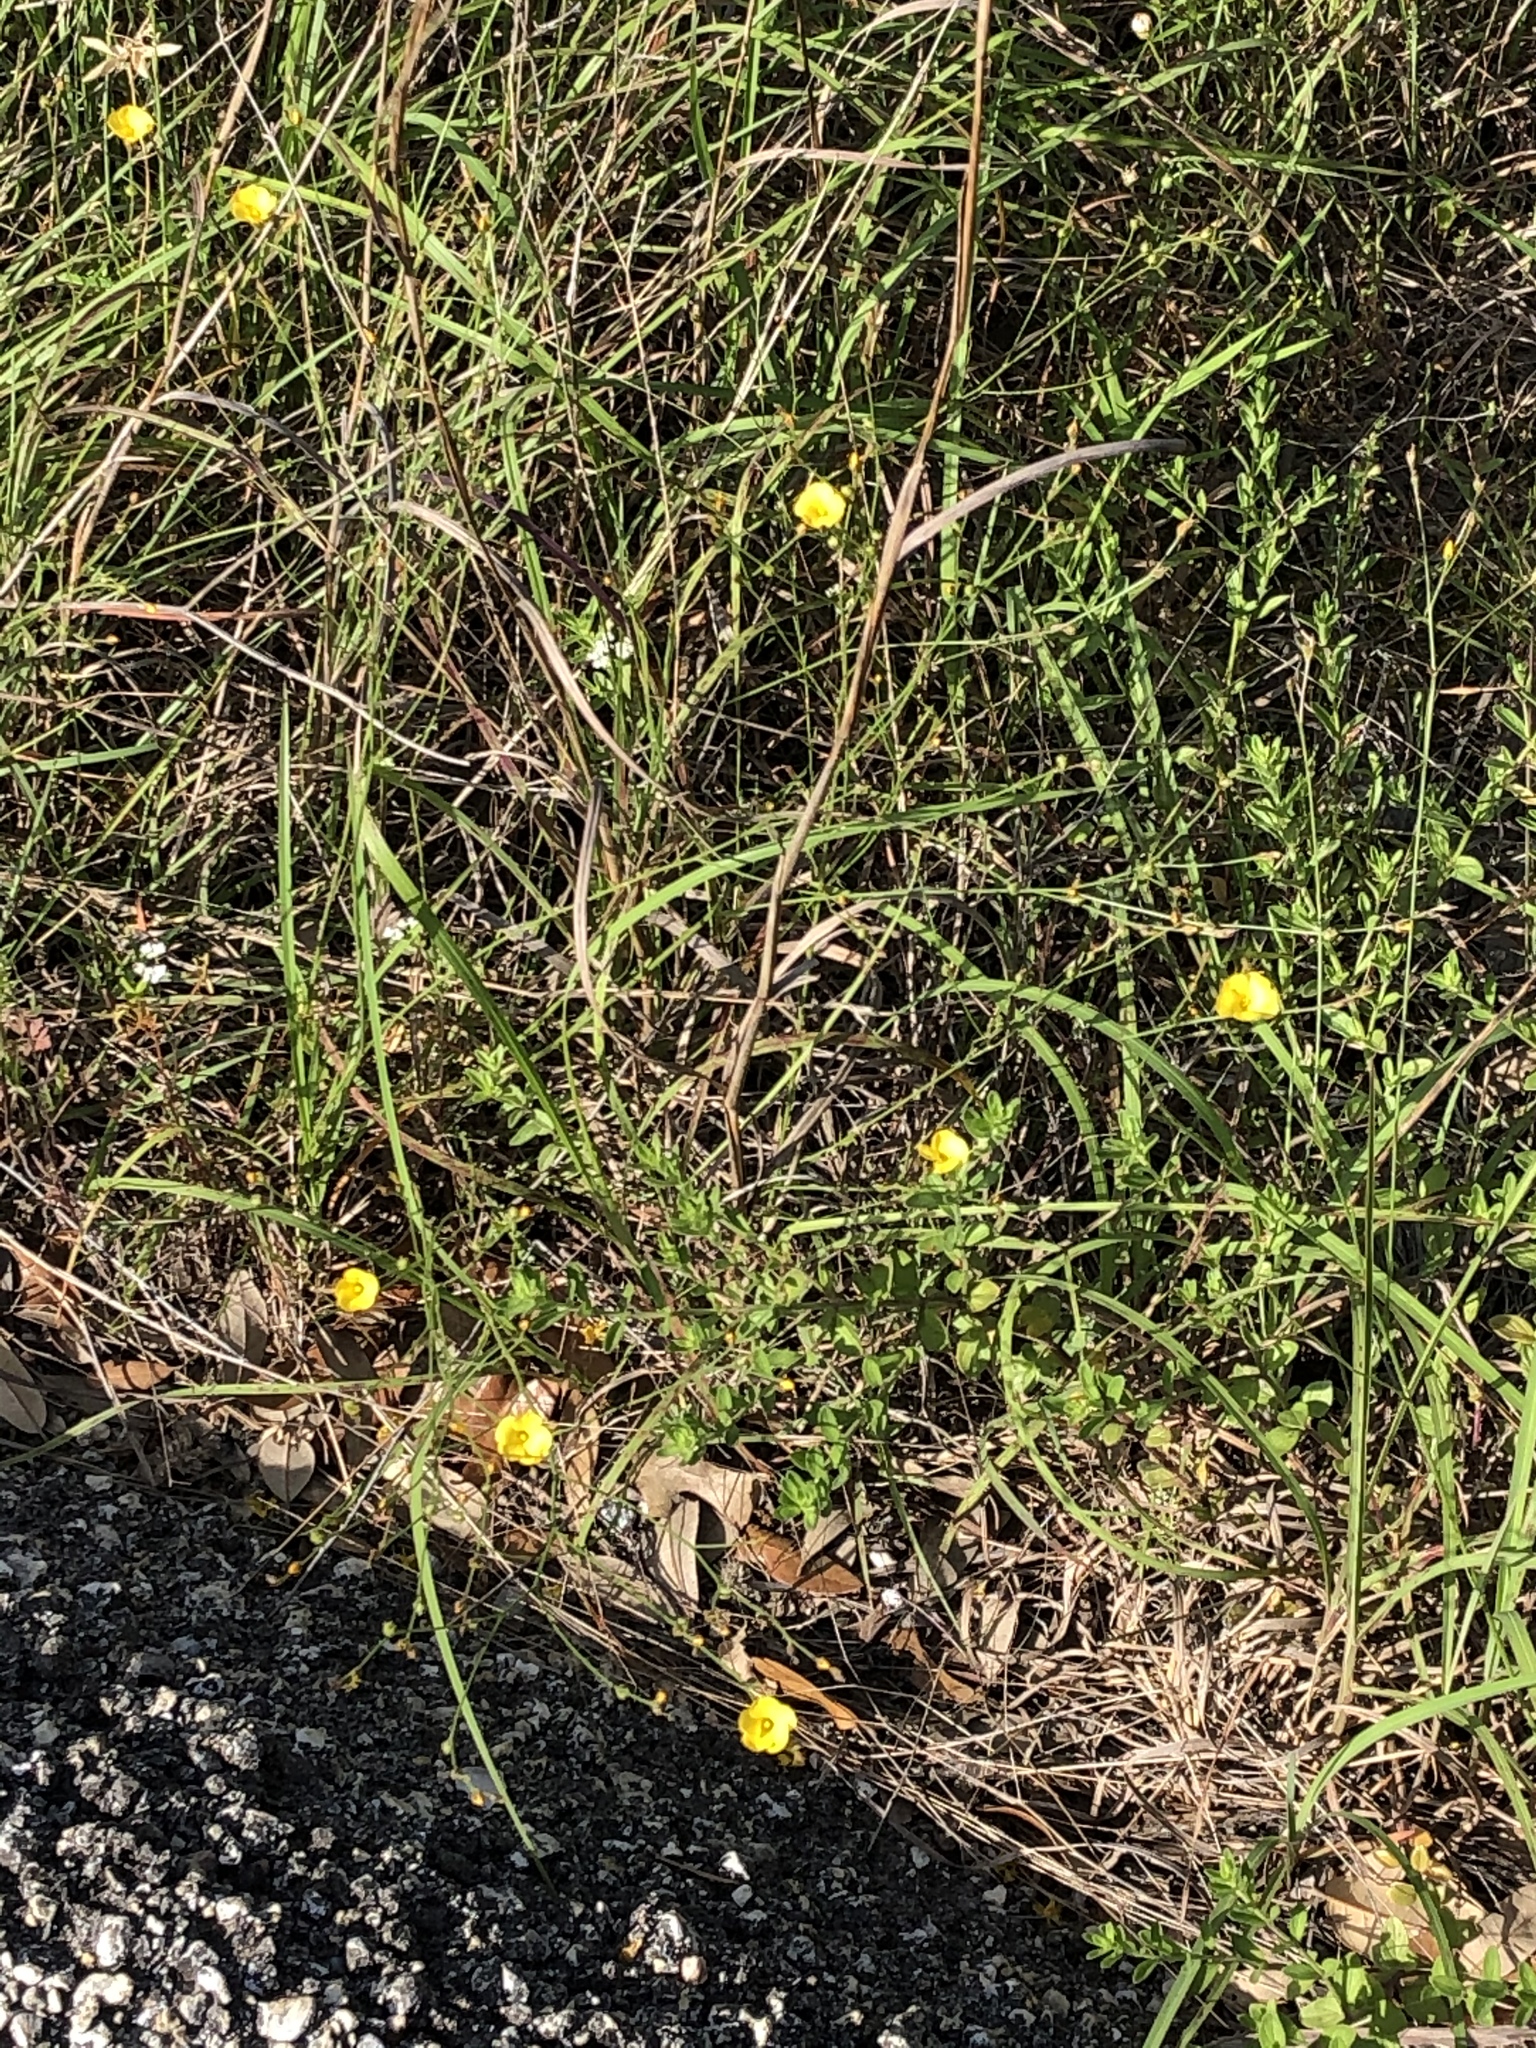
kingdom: Plantae
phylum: Tracheophyta
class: Magnoliopsida
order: Malpighiales
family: Linaceae
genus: Linum
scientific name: Linum rupestre
